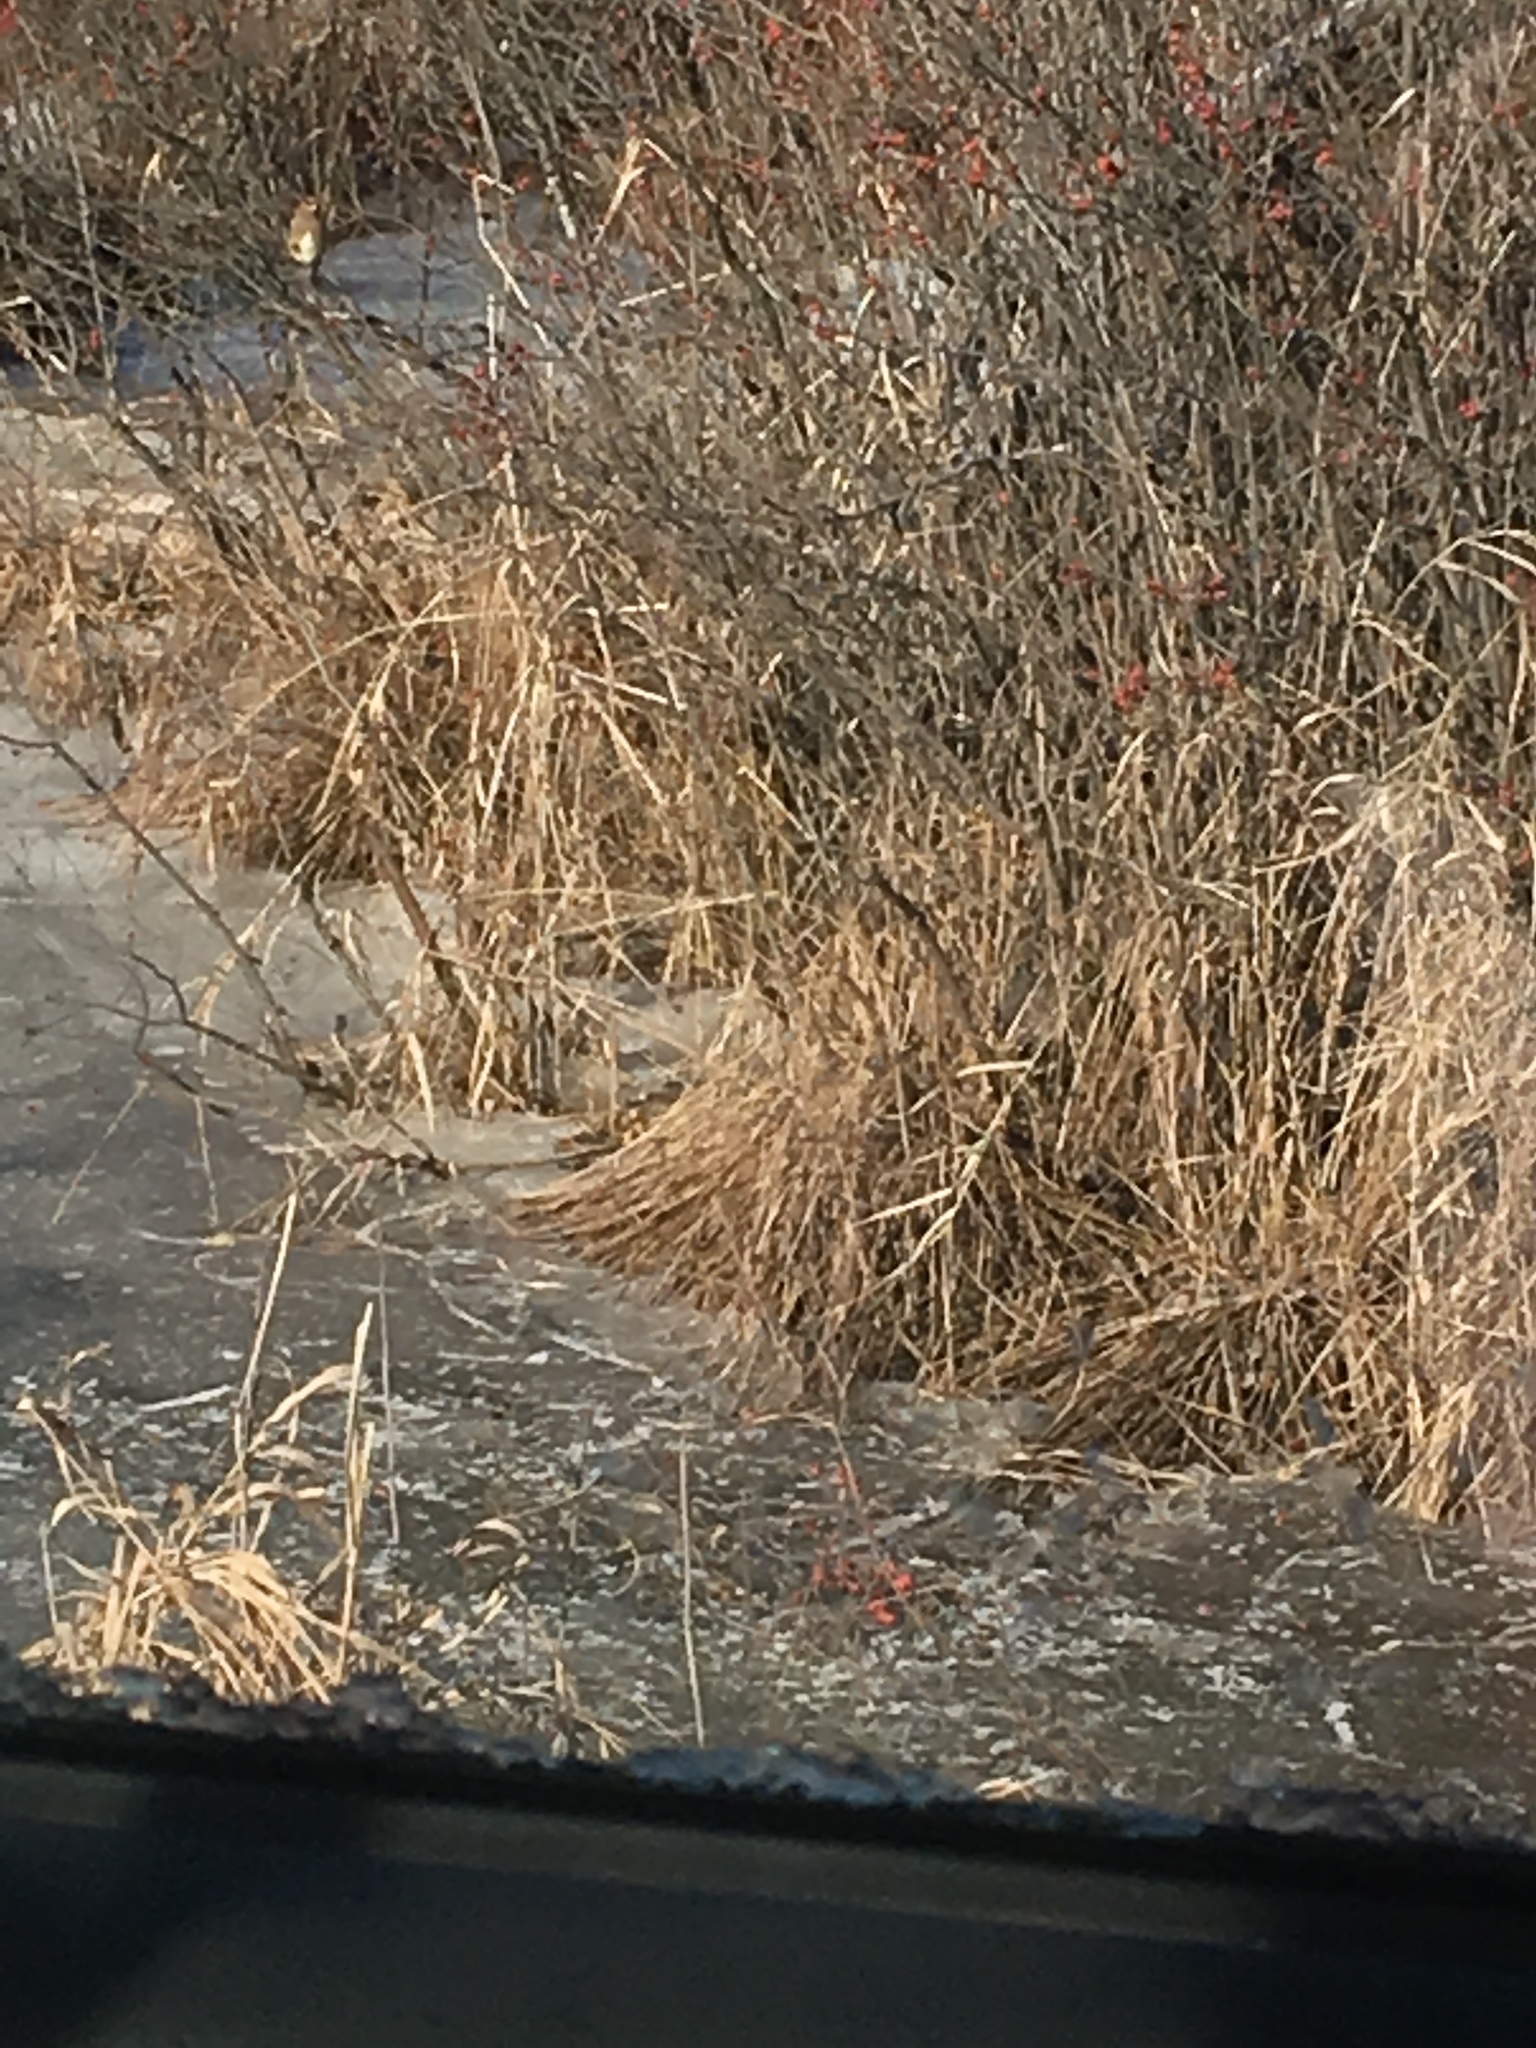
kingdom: Animalia
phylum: Chordata
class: Aves
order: Passeriformes
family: Bombycillidae
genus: Bombycilla
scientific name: Bombycilla cedrorum
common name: Cedar waxwing
